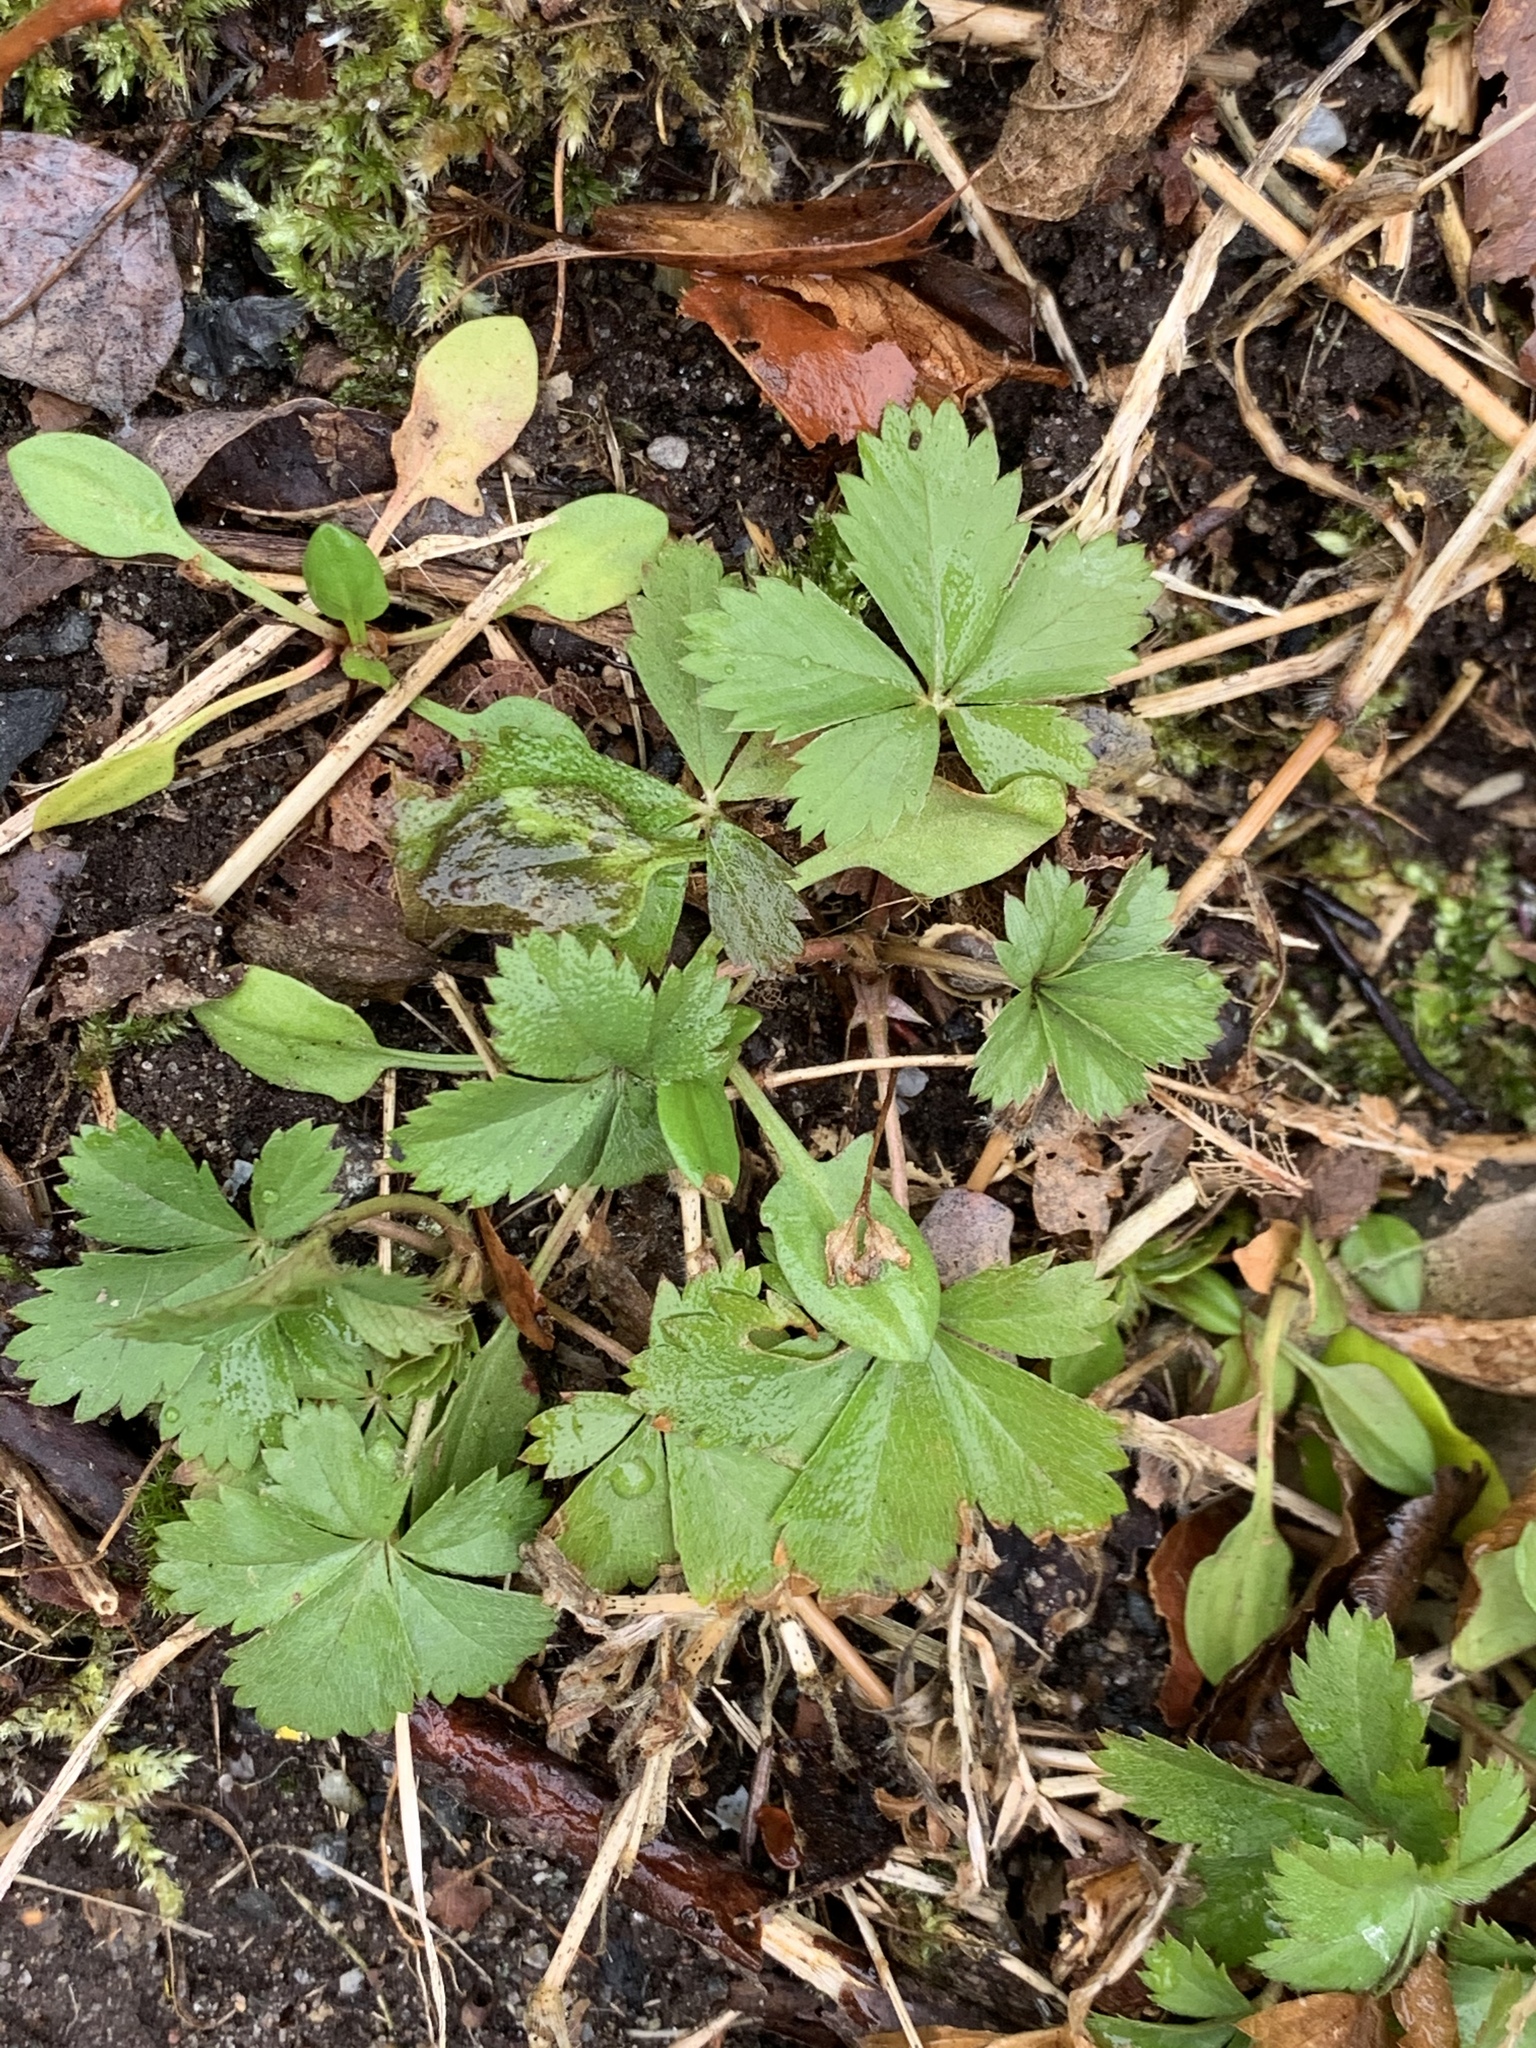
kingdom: Plantae
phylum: Tracheophyta
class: Magnoliopsida
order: Rosales
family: Rosaceae
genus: Potentilla
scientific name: Potentilla canadensis
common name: Canada cinquefoil
